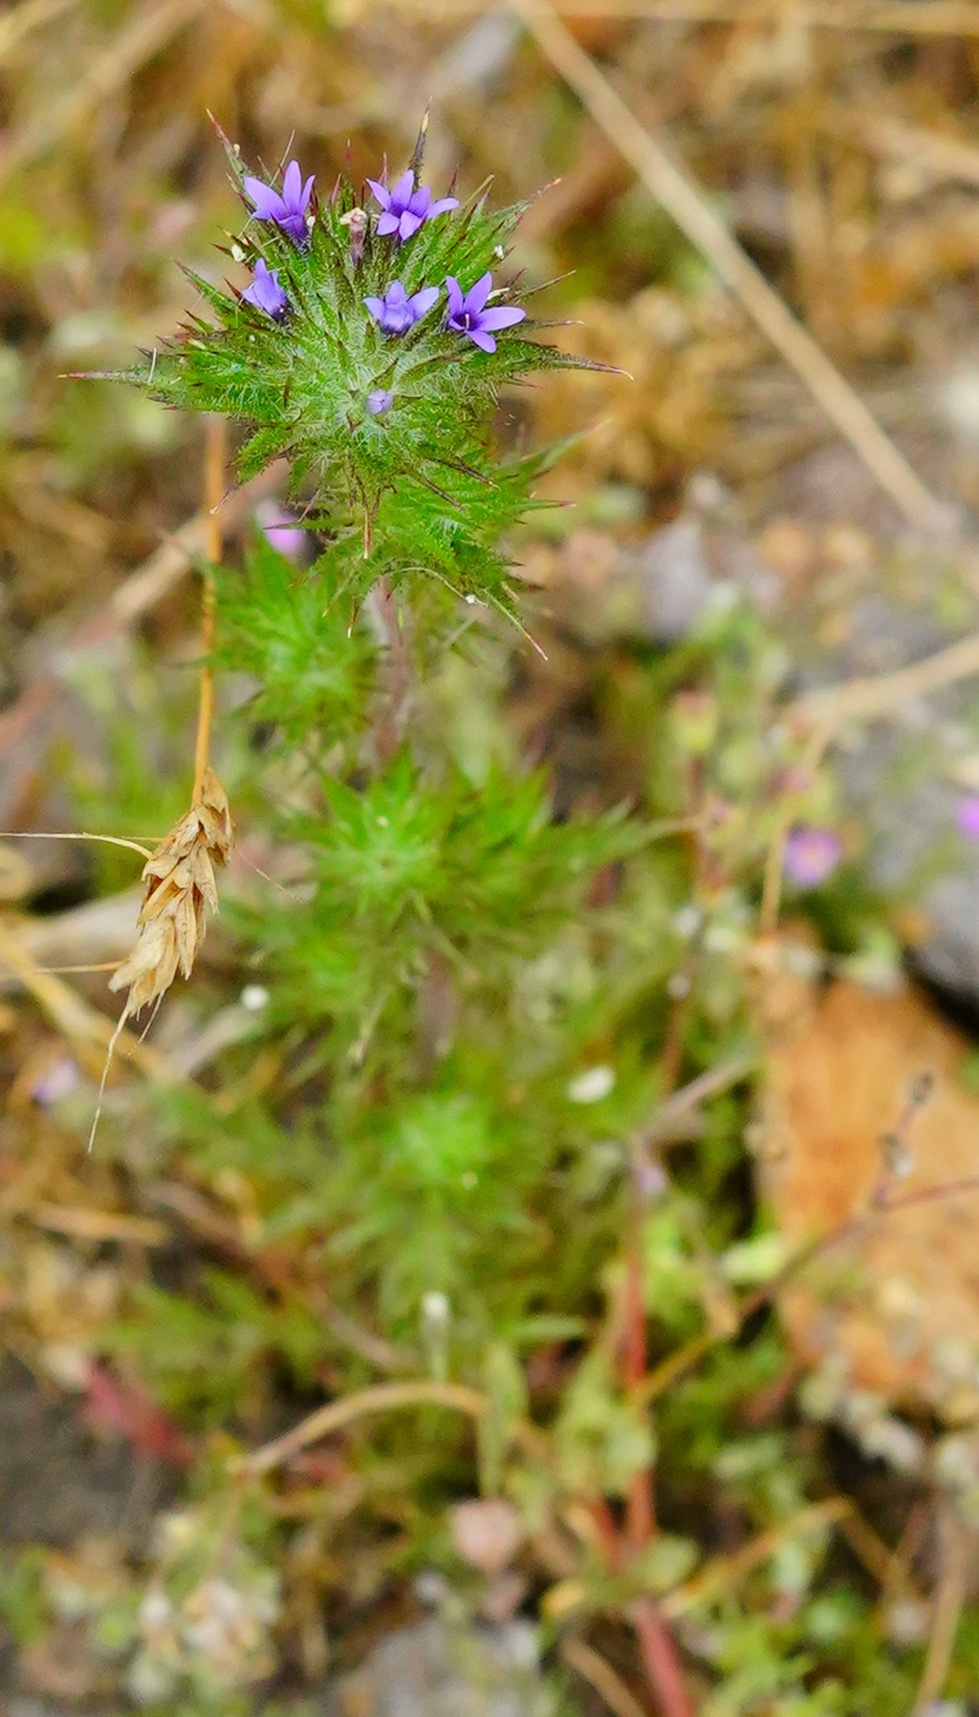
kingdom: Plantae
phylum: Tracheophyta
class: Magnoliopsida
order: Ericales
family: Polemoniaceae
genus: Navarretia
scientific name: Navarretia squarrosa
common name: Skunkweed
